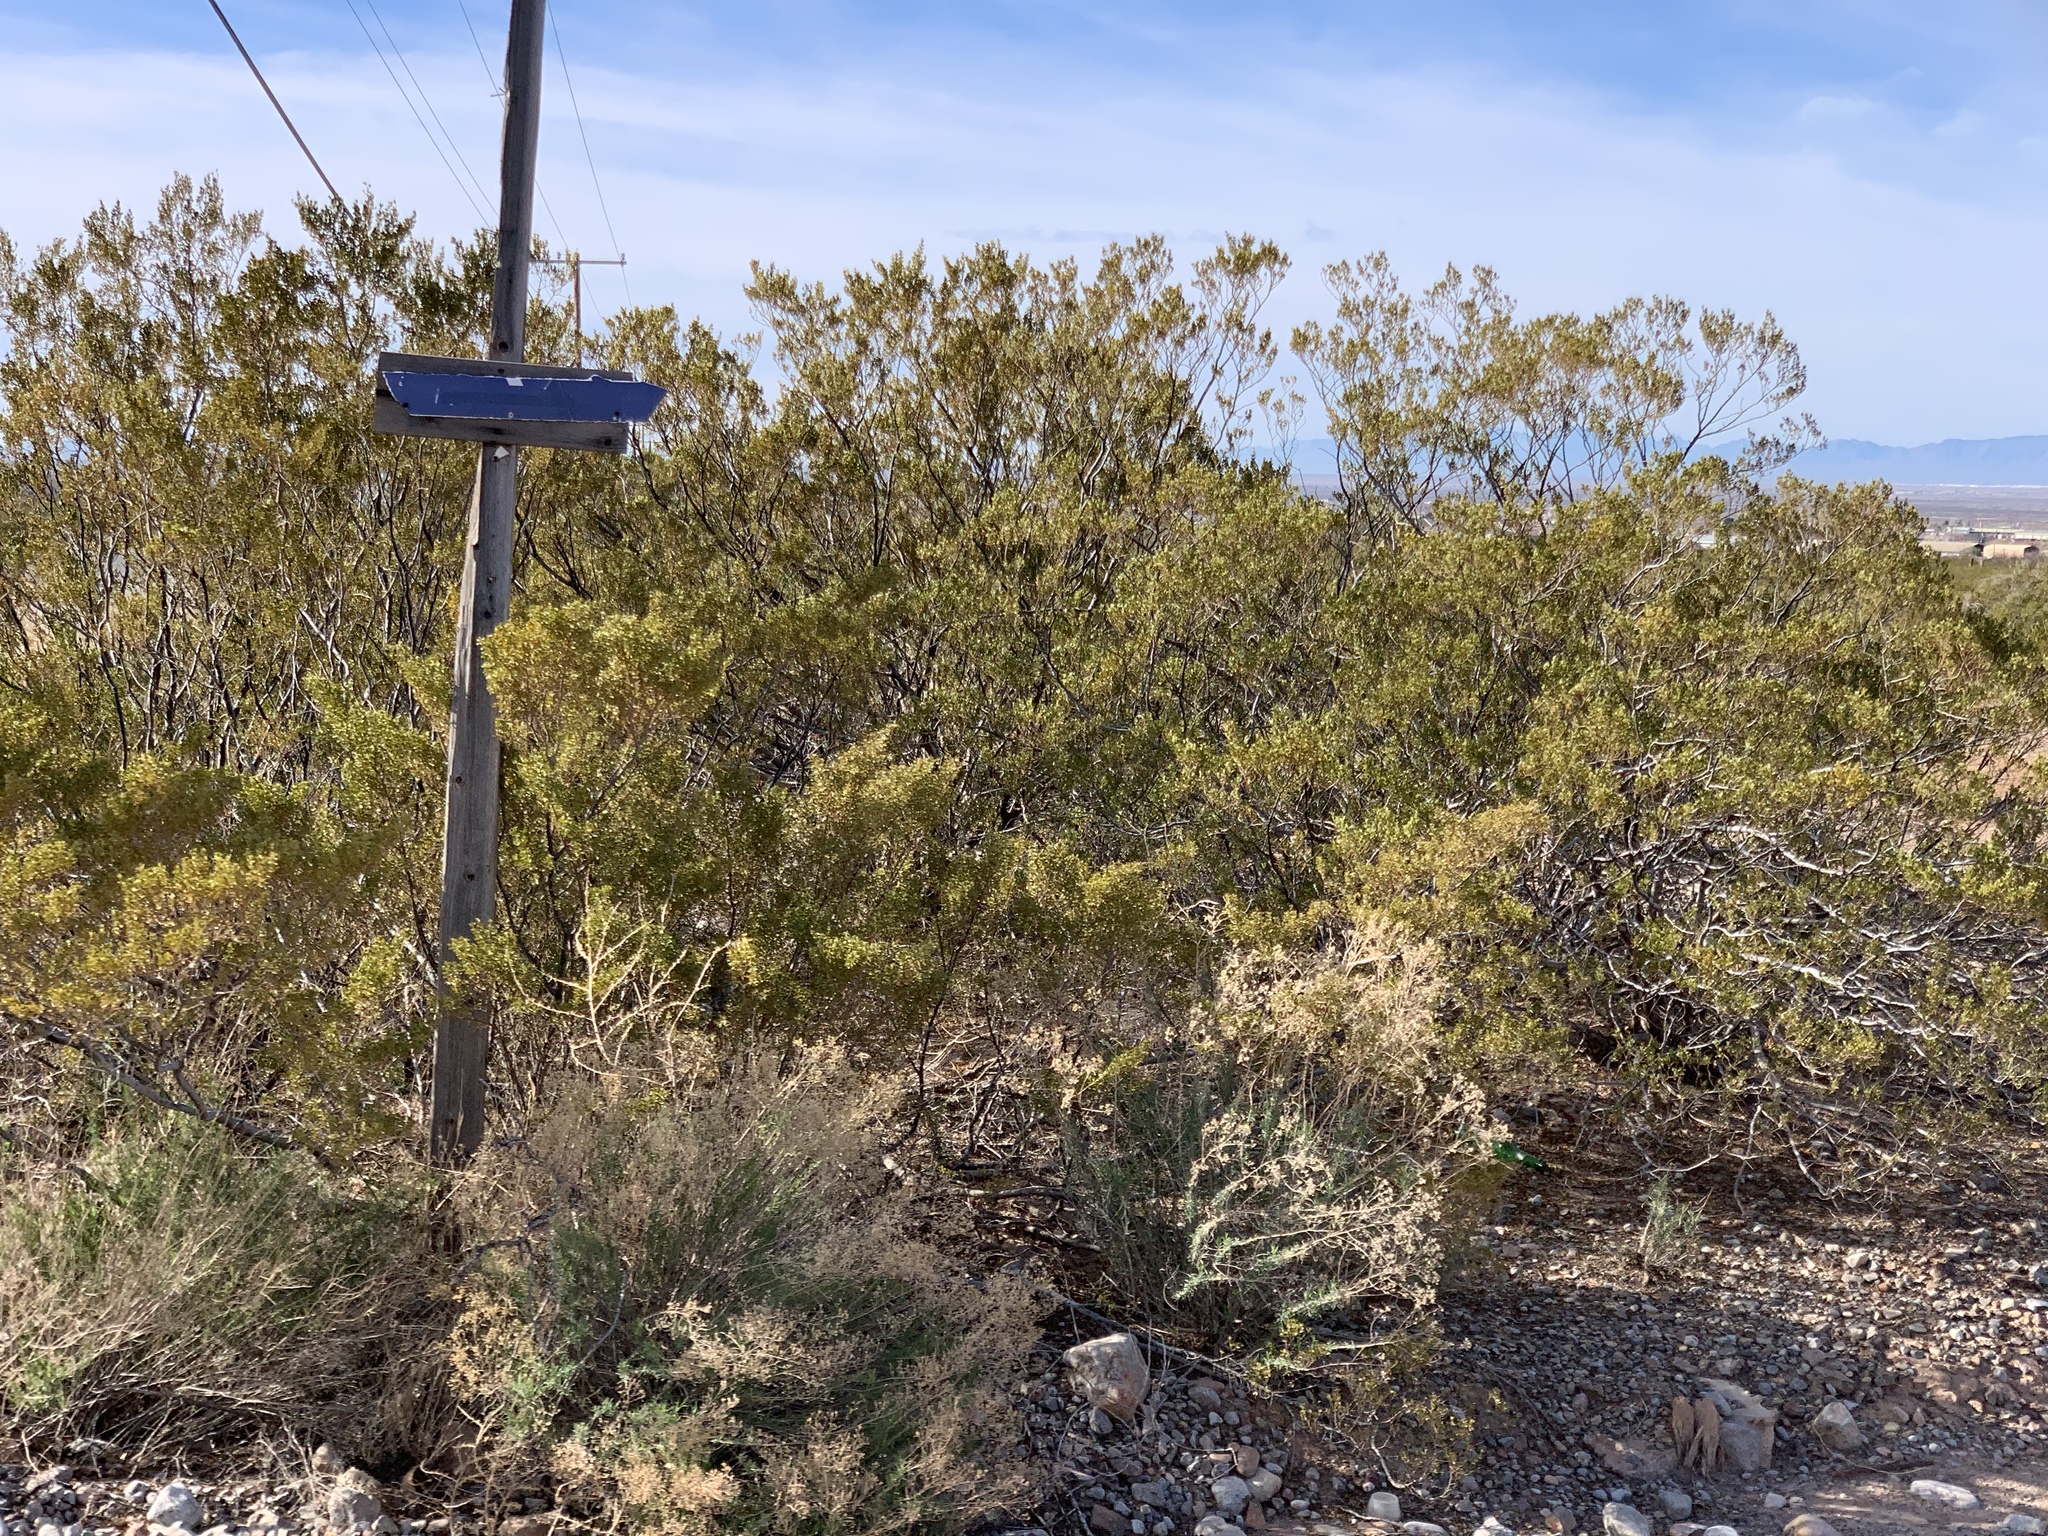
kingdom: Plantae
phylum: Tracheophyta
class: Magnoliopsida
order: Zygophyllales
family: Zygophyllaceae
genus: Larrea
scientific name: Larrea tridentata
